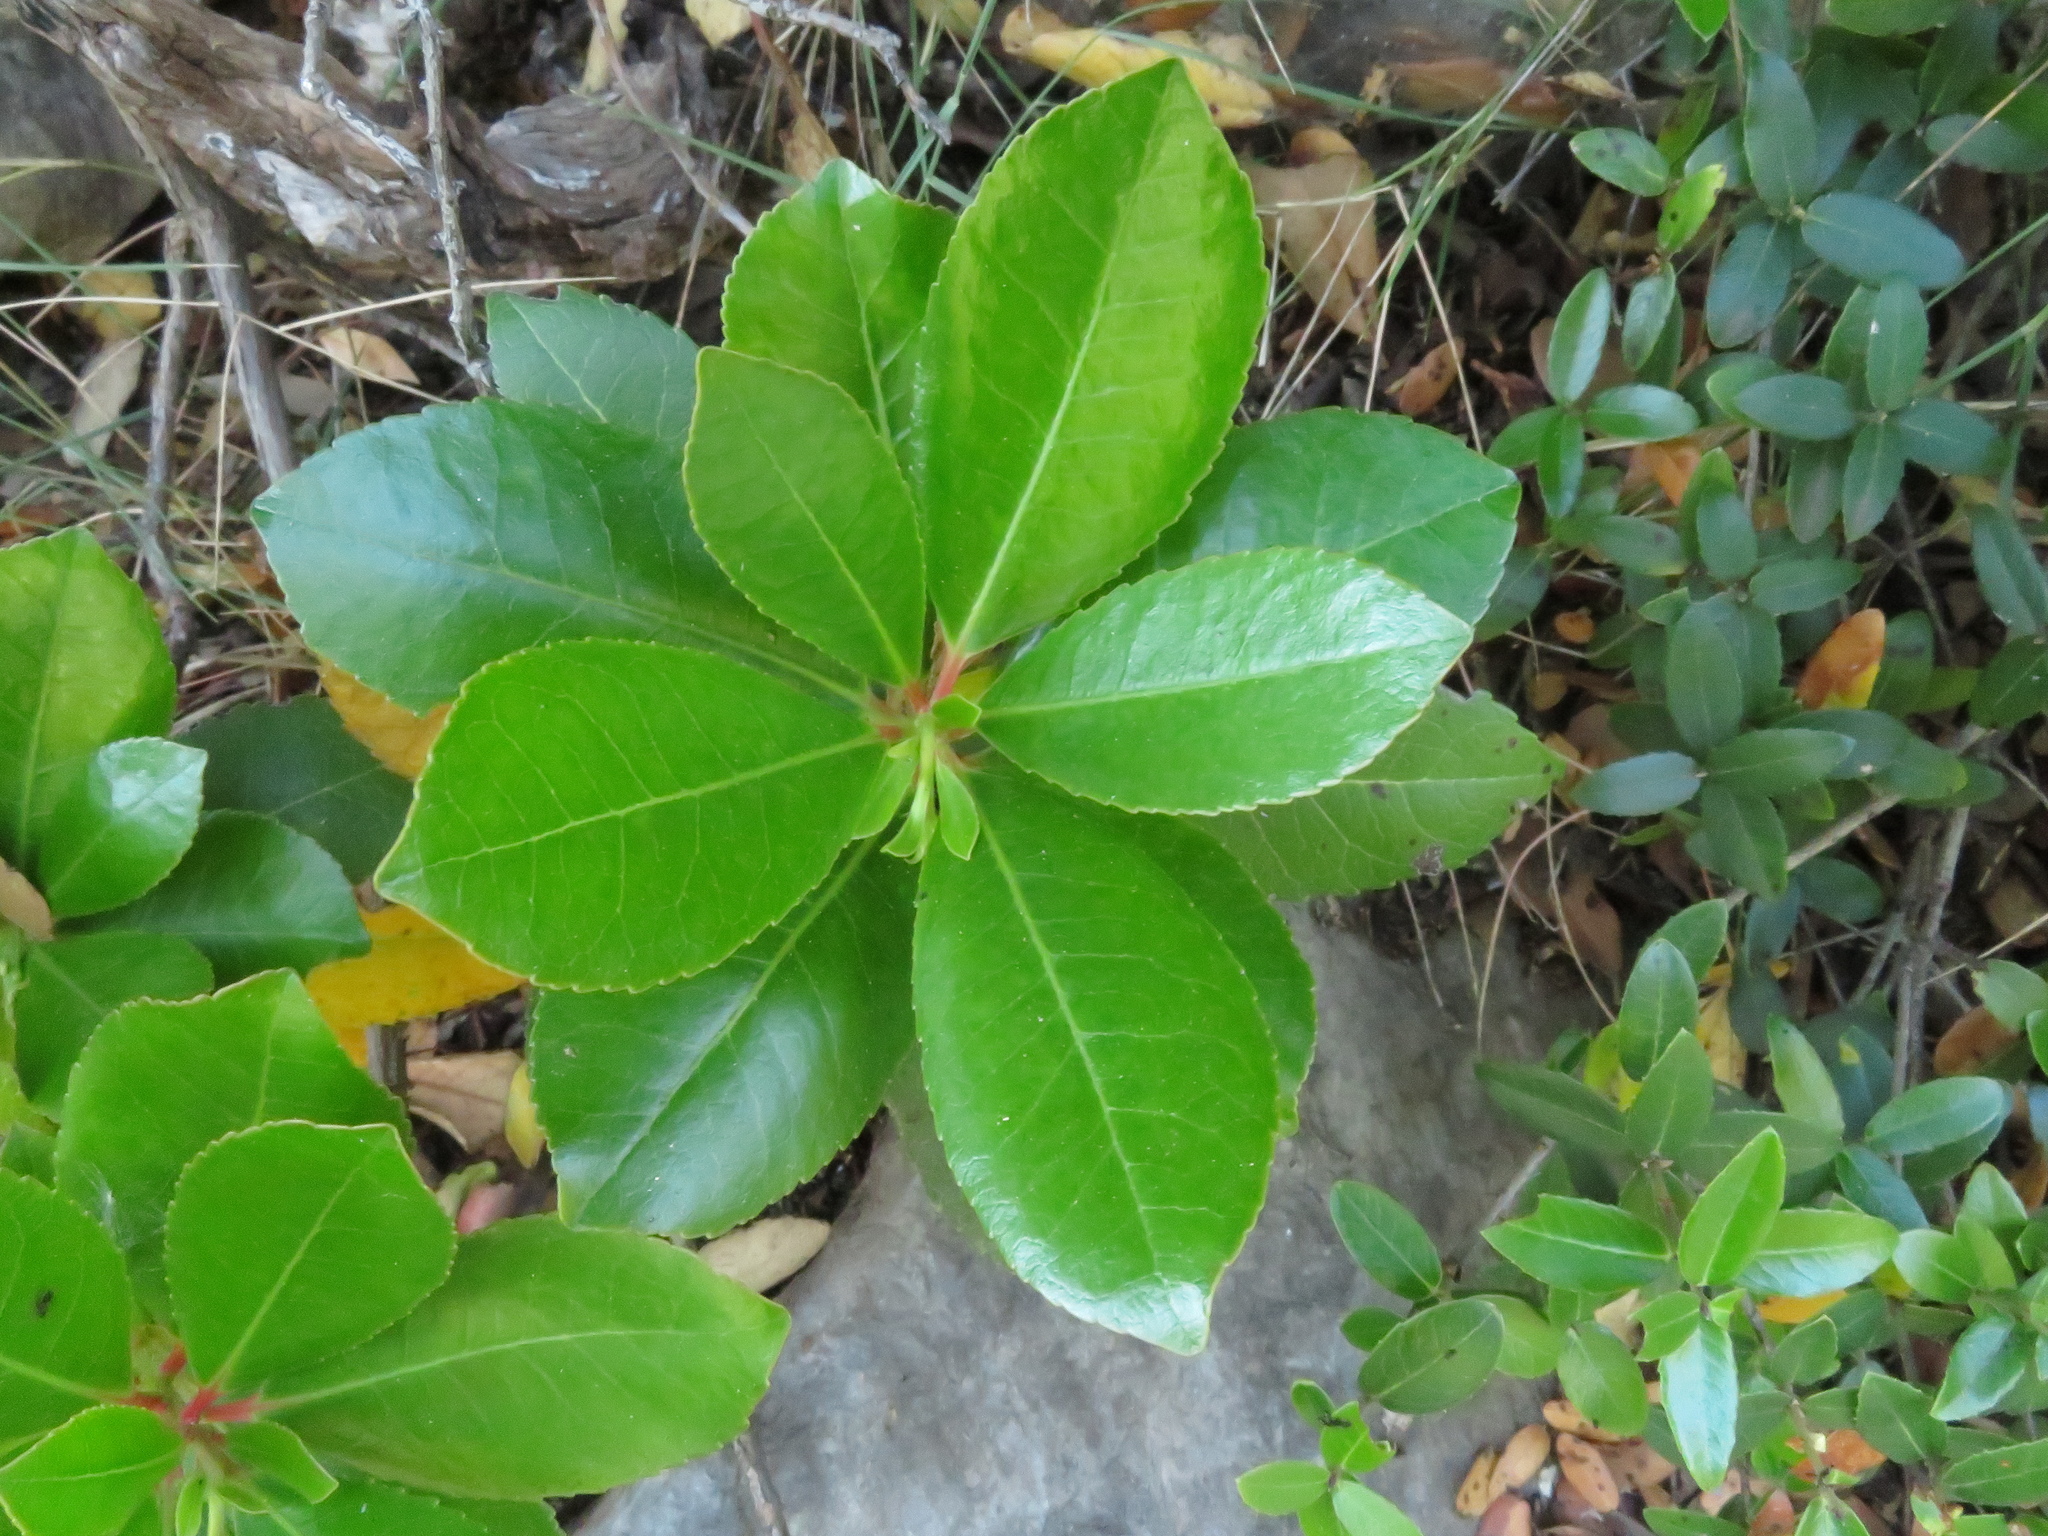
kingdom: Plantae
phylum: Tracheophyta
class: Magnoliopsida
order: Ericales
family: Ericaceae
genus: Arbutus
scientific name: Arbutus unedo
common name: Strawberry-tree
